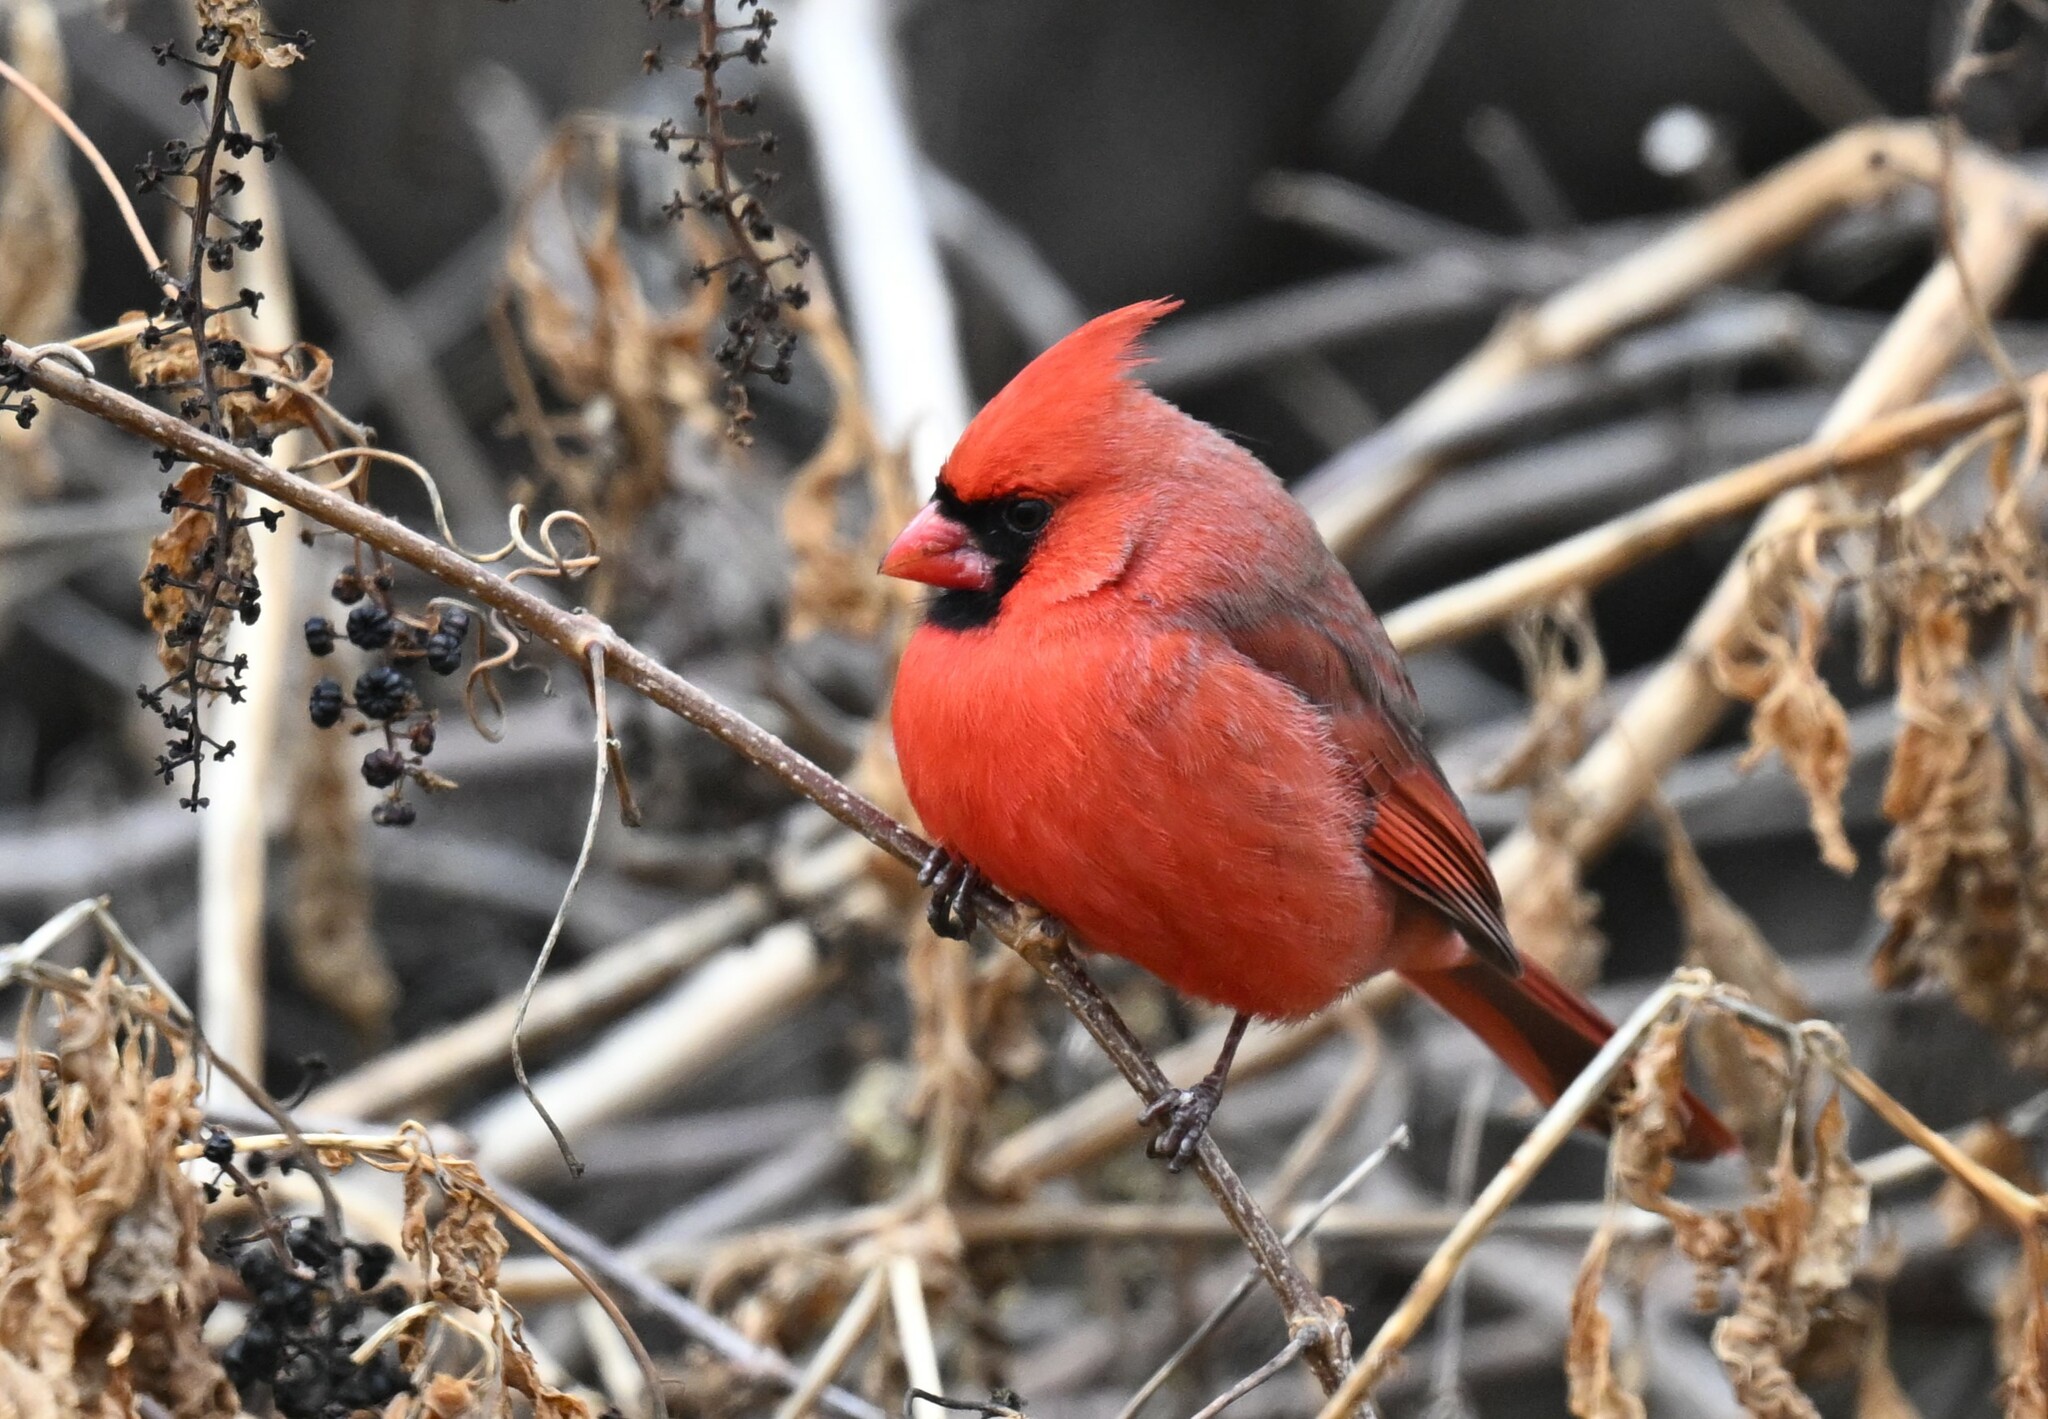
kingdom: Animalia
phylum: Chordata
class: Aves
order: Passeriformes
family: Cardinalidae
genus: Cardinalis
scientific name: Cardinalis cardinalis
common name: Northern cardinal
